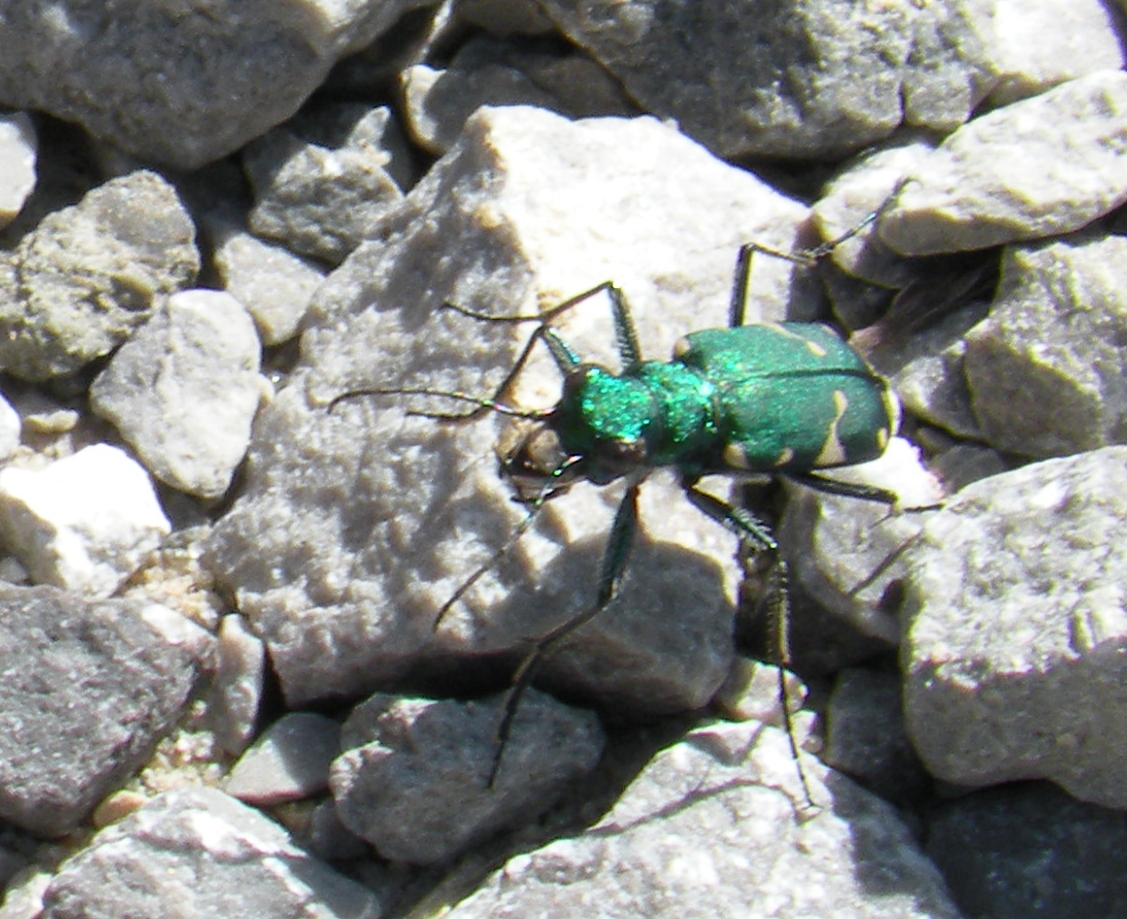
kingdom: Animalia
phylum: Arthropoda
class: Insecta
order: Coleoptera
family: Carabidae
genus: Cicindela
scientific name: Cicindela patruela
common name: Northern barrens tiger beetle
